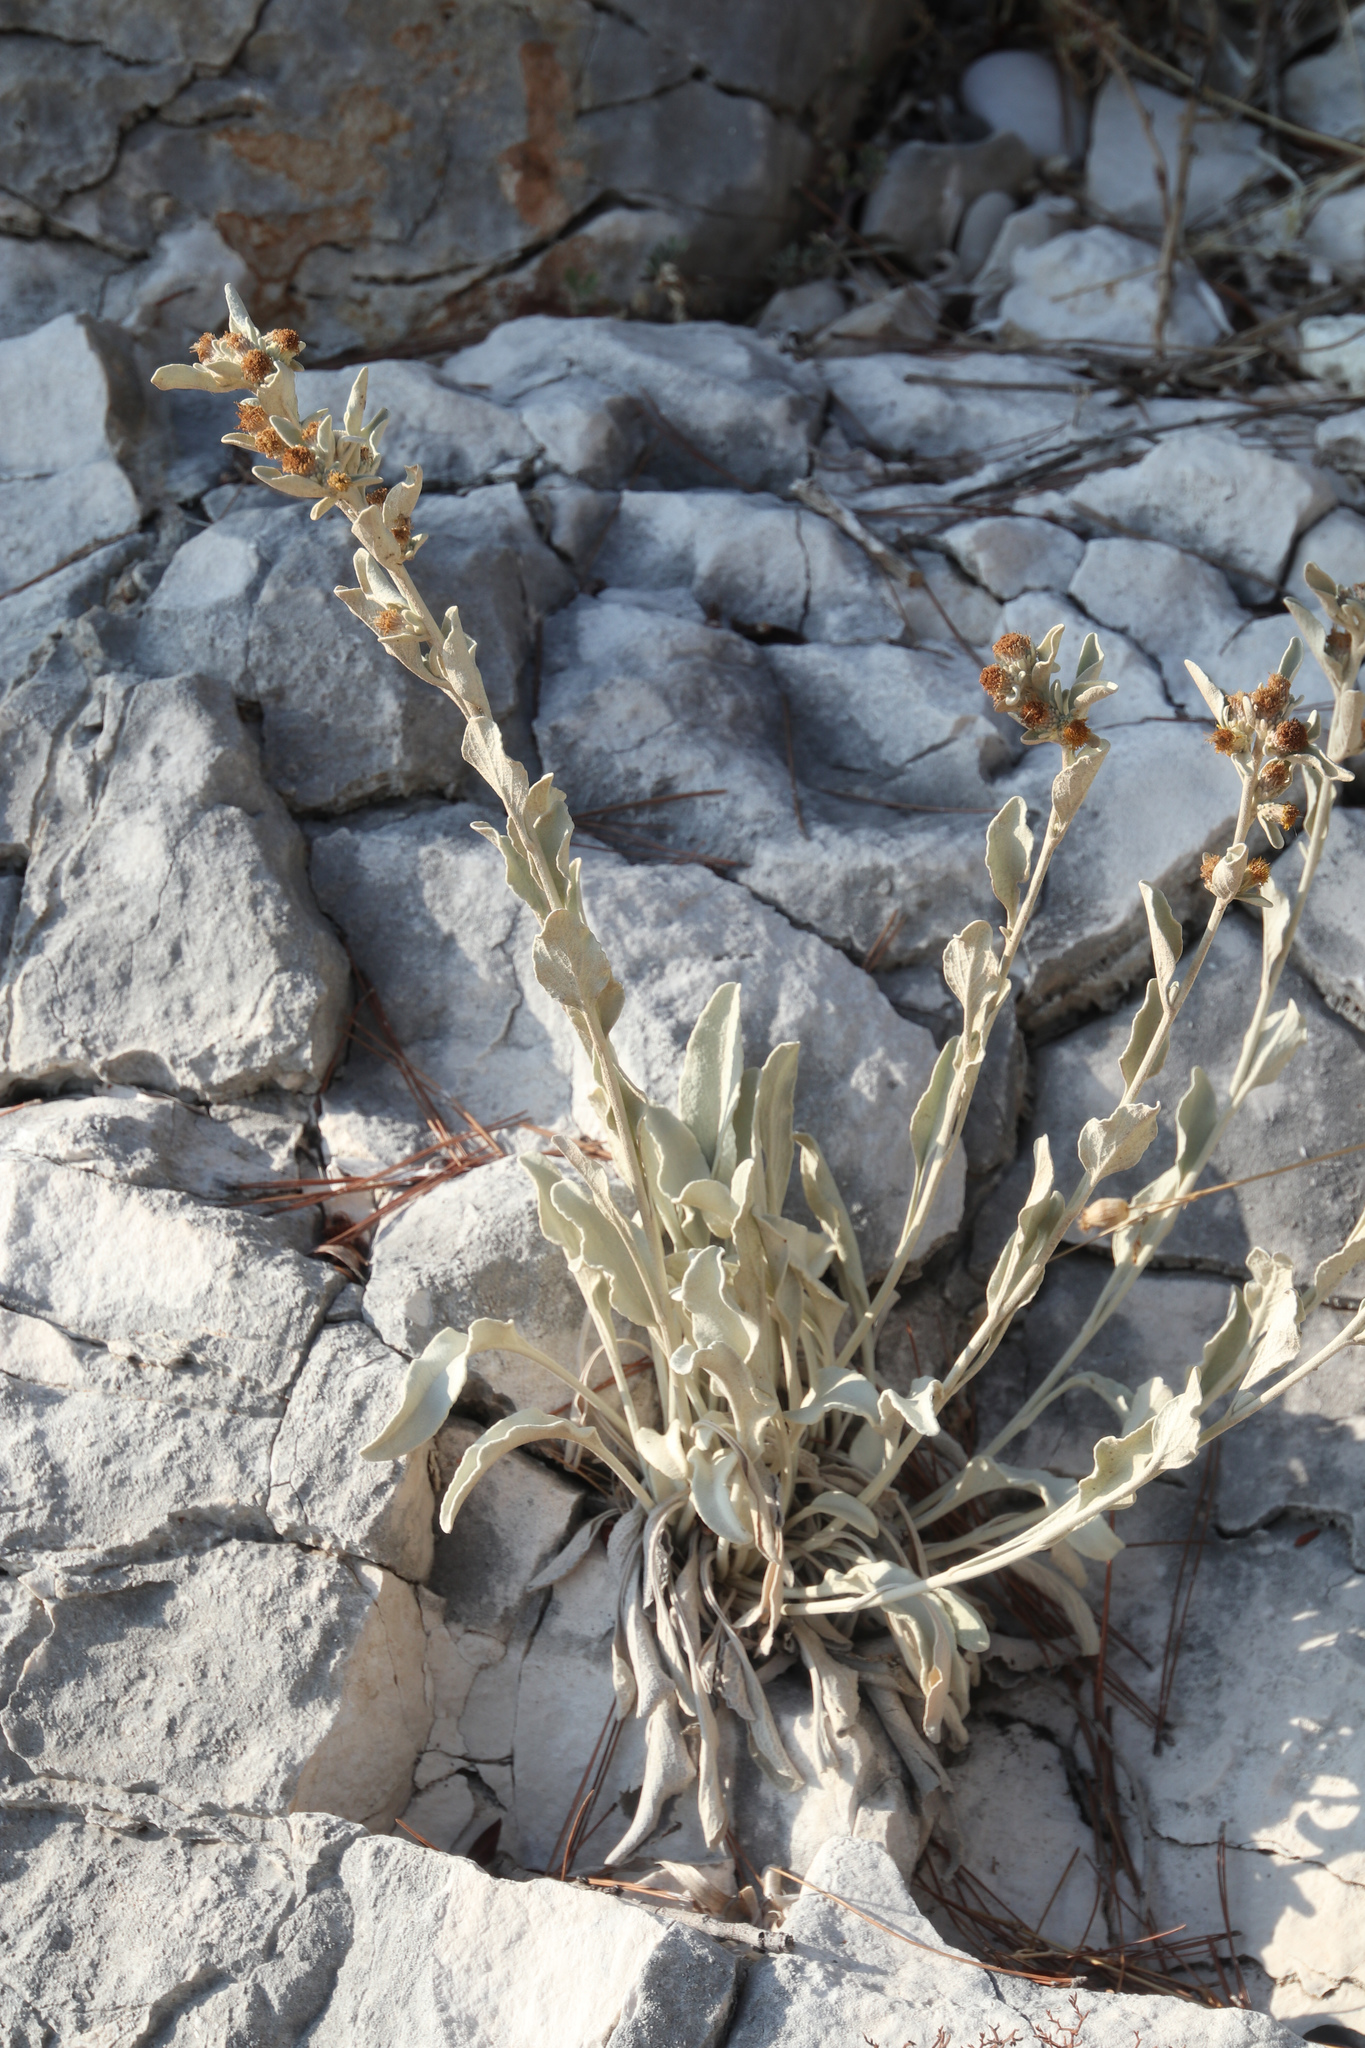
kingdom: Plantae
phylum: Tracheophyta
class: Magnoliopsida
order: Asterales
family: Asteraceae
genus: Pentanema
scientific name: Pentanema verbascifolium
